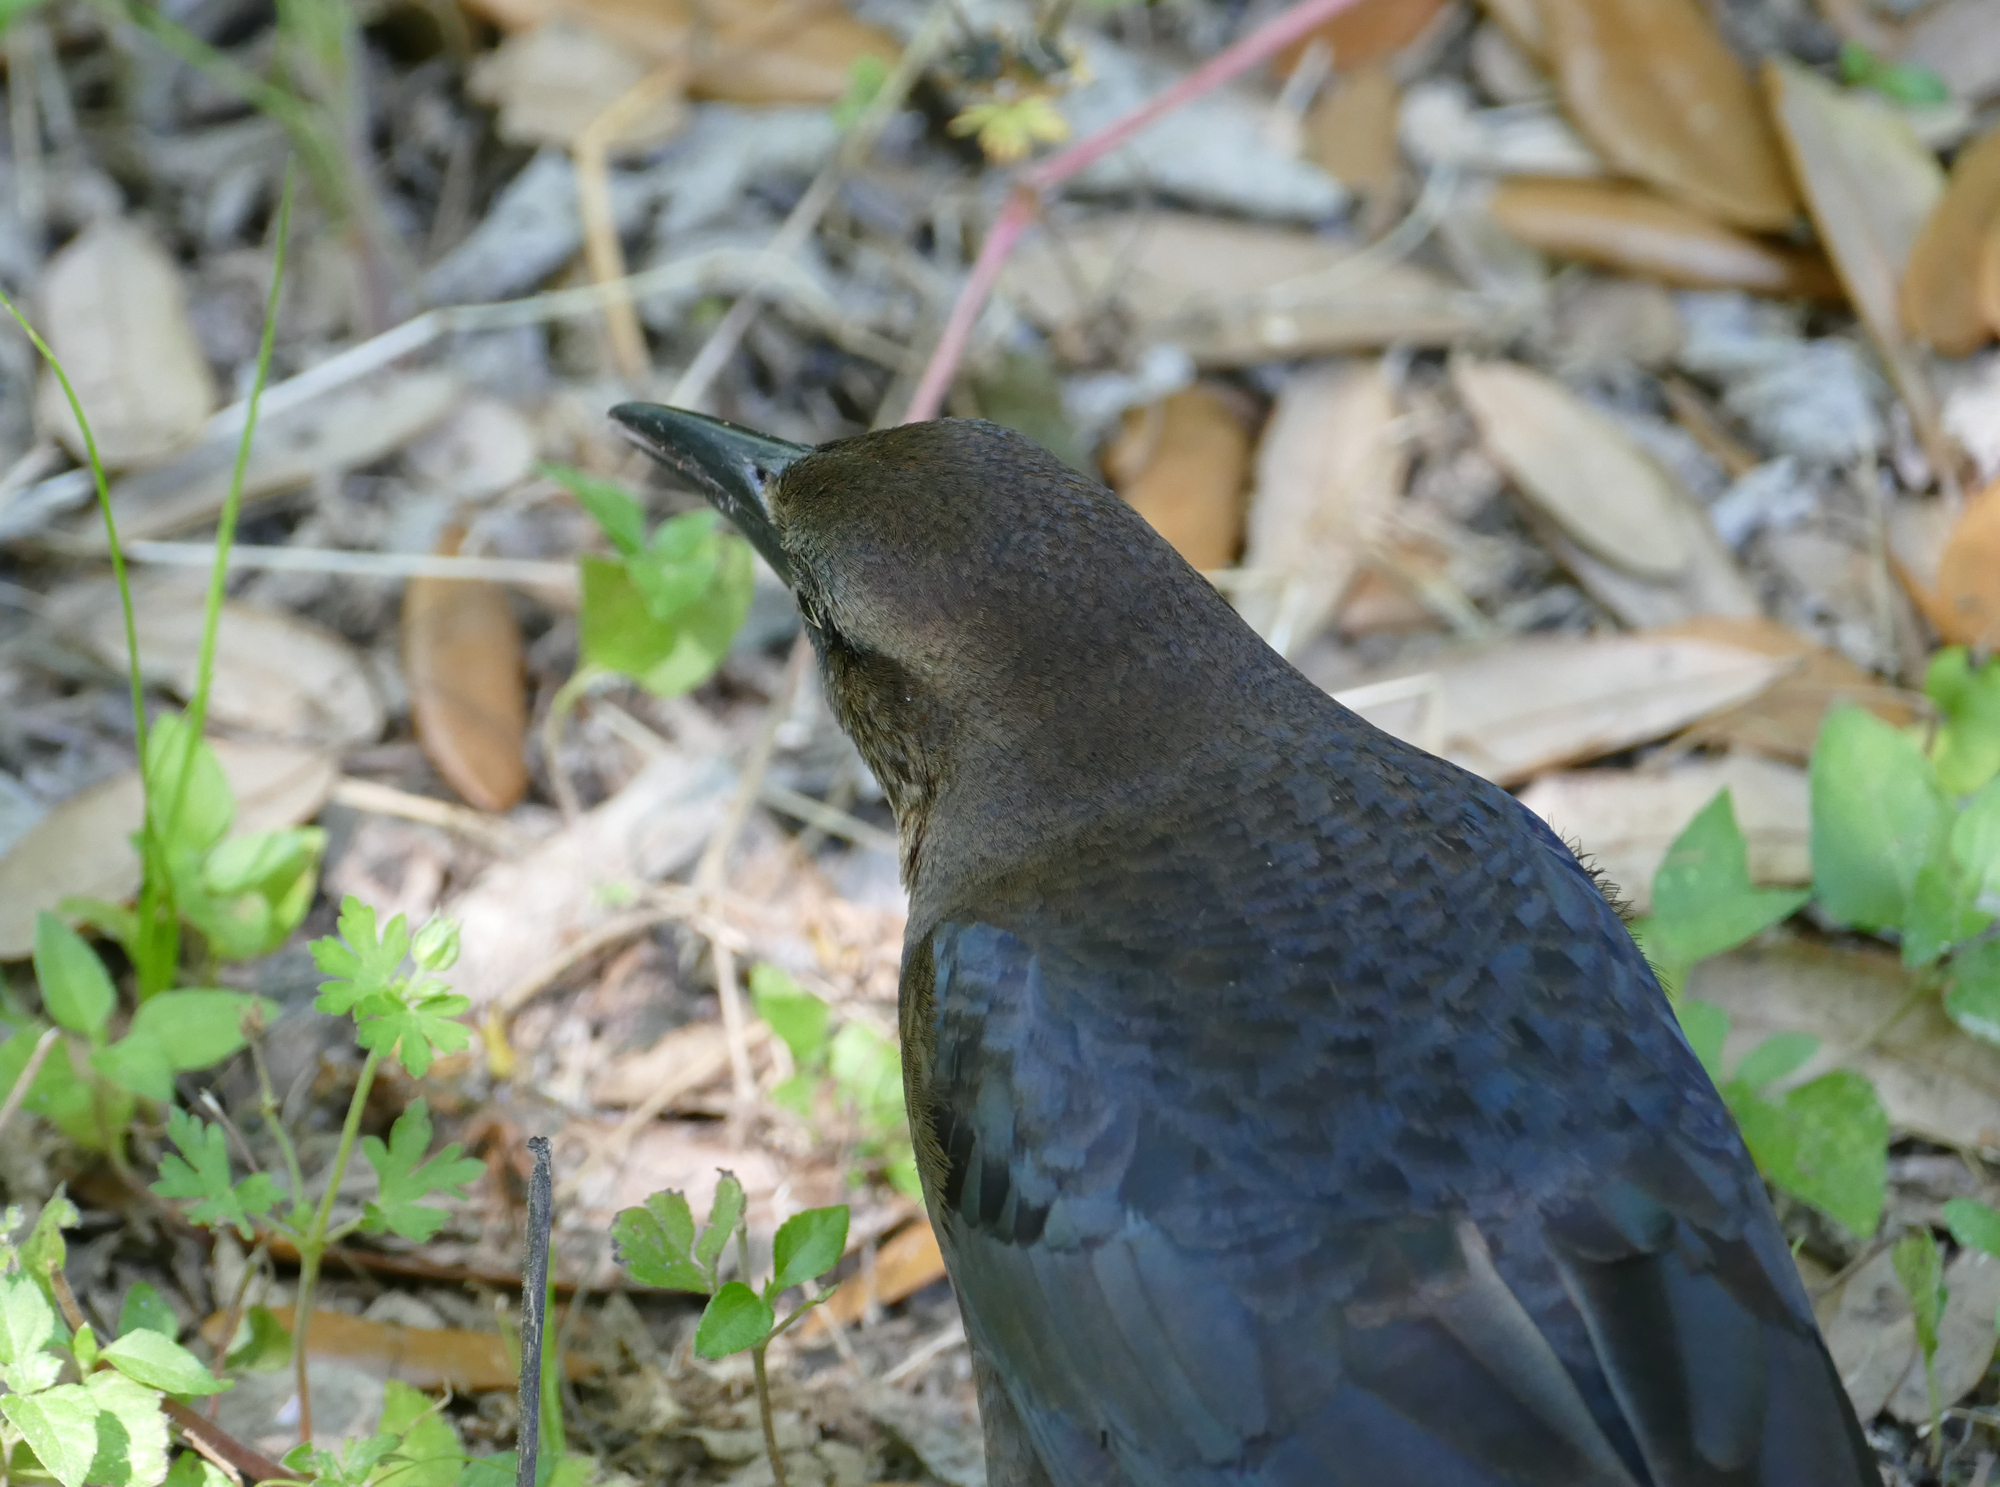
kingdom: Animalia
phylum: Chordata
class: Aves
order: Passeriformes
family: Icteridae
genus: Quiscalus
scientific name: Quiscalus mexicanus
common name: Great-tailed grackle
